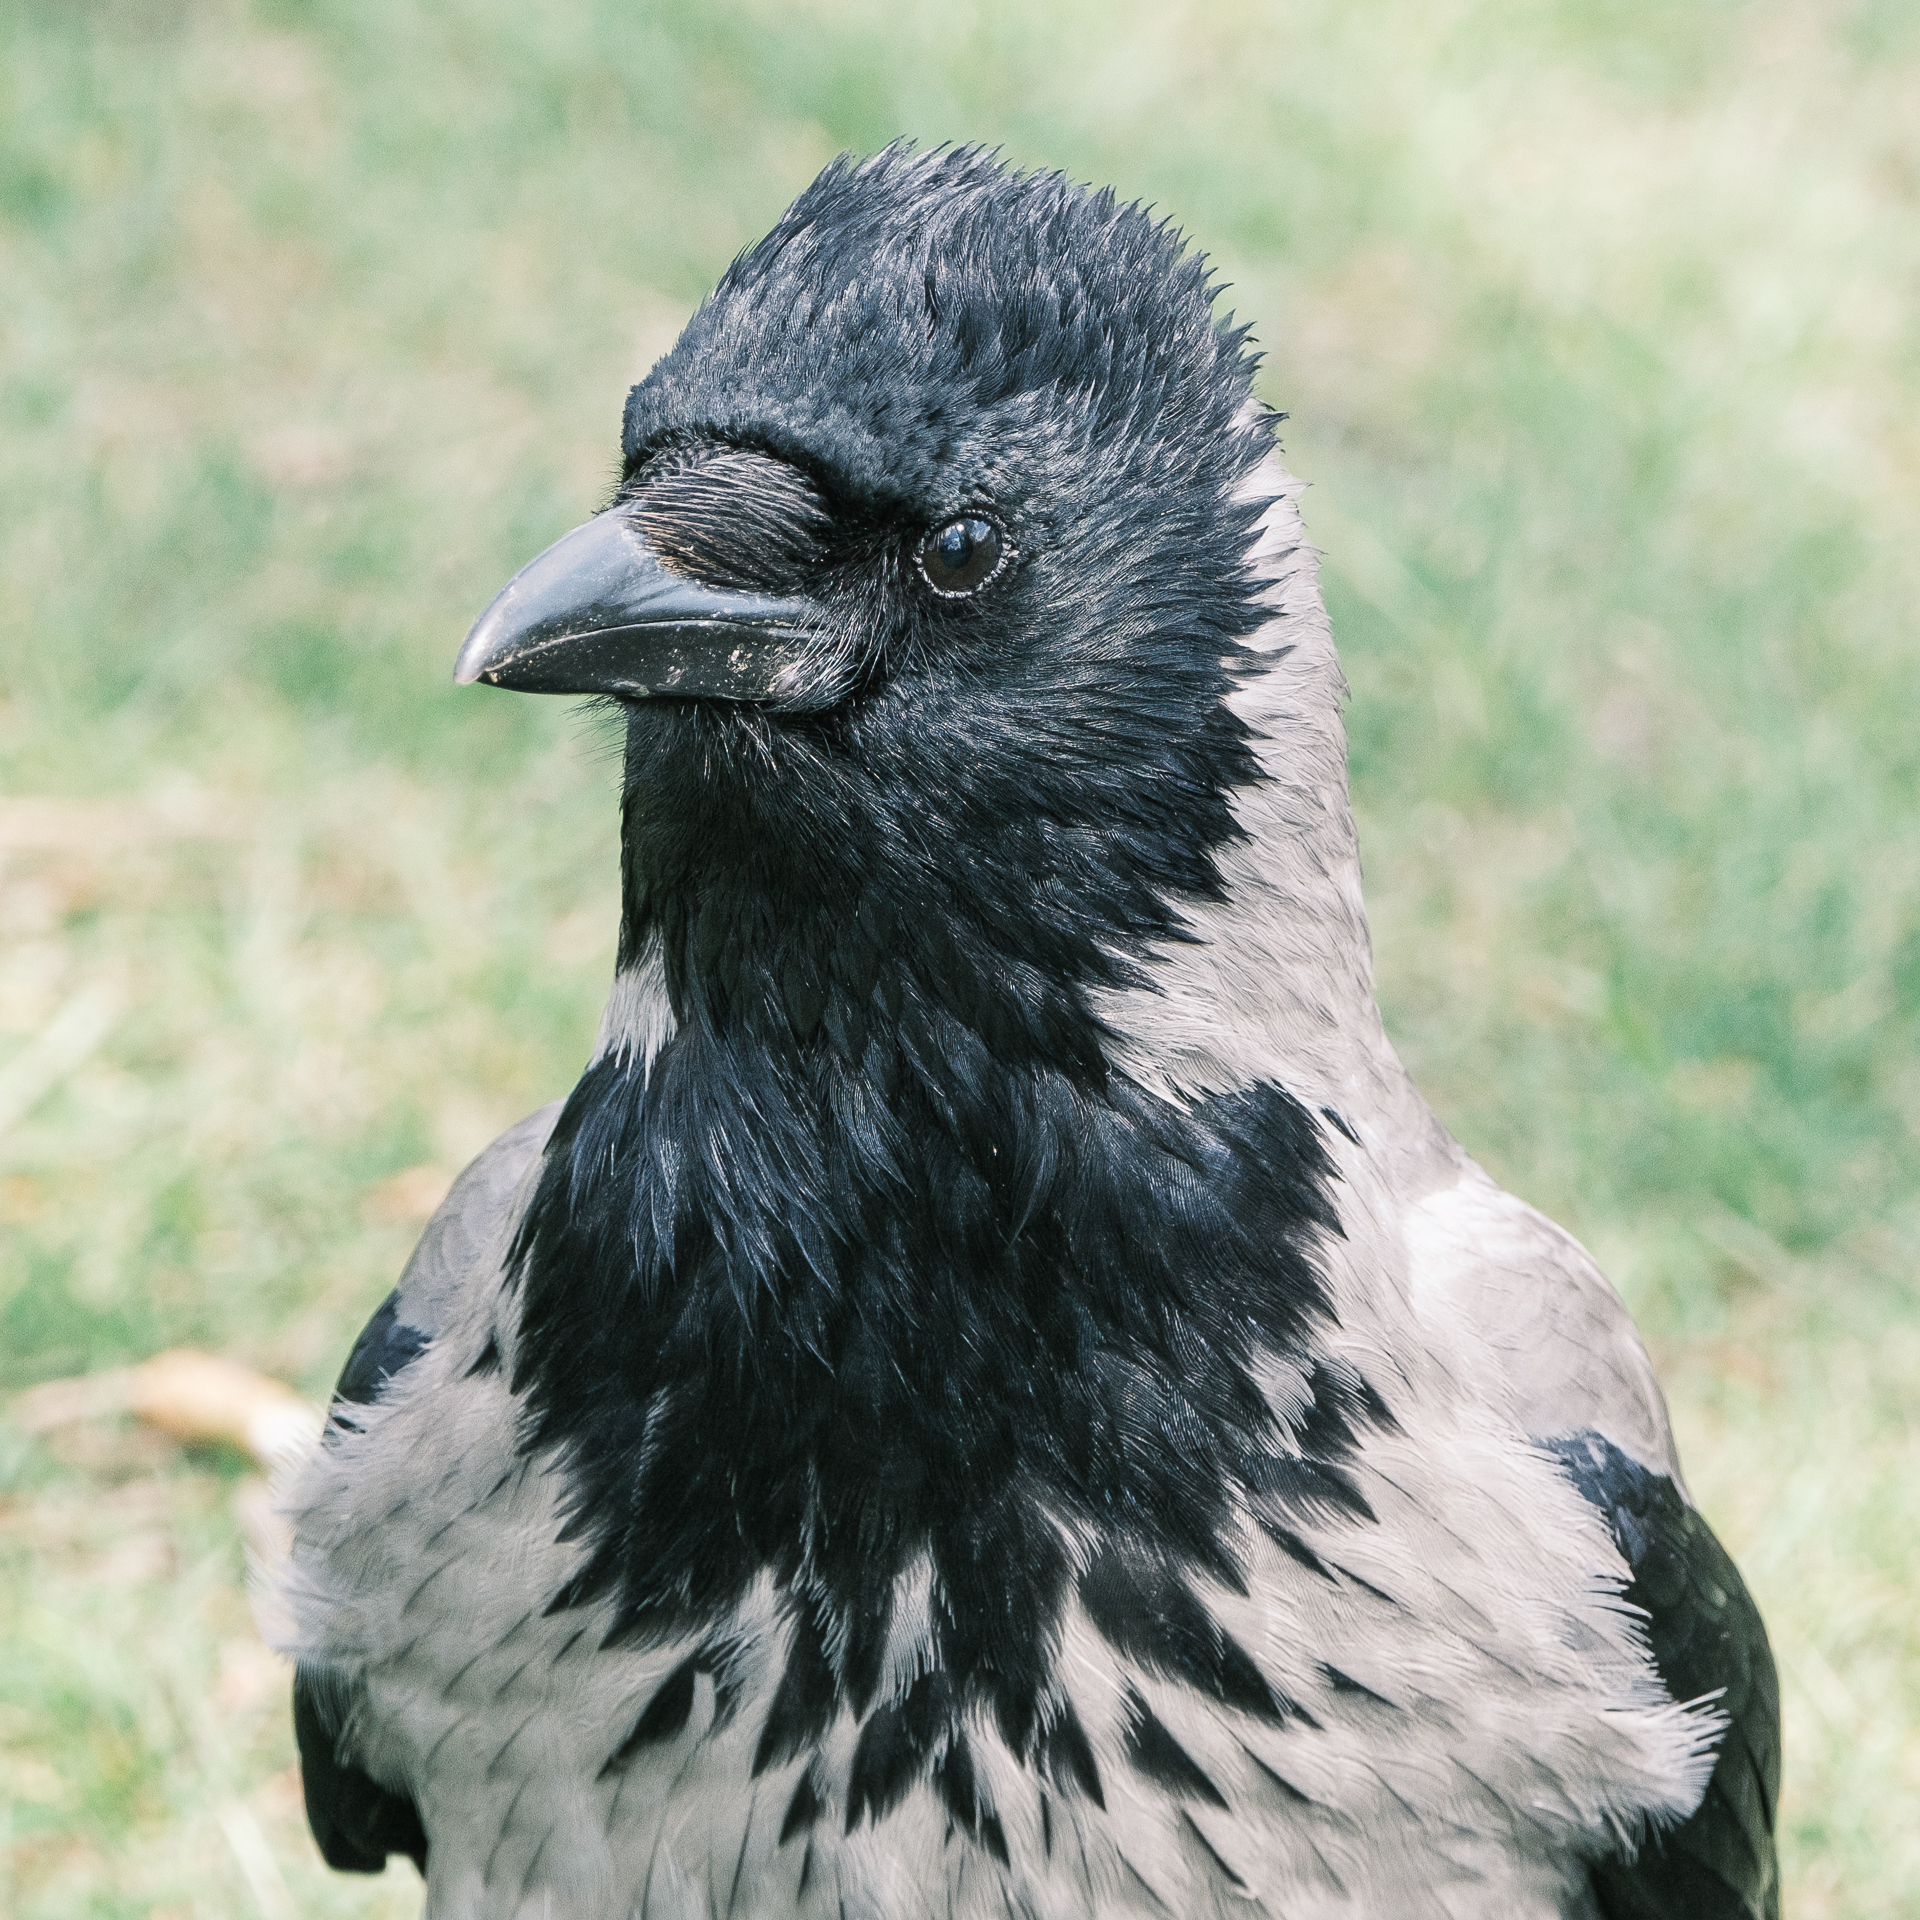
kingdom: Animalia
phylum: Chordata
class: Aves
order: Passeriformes
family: Corvidae
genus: Corvus
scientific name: Corvus cornix
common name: Hooded crow
